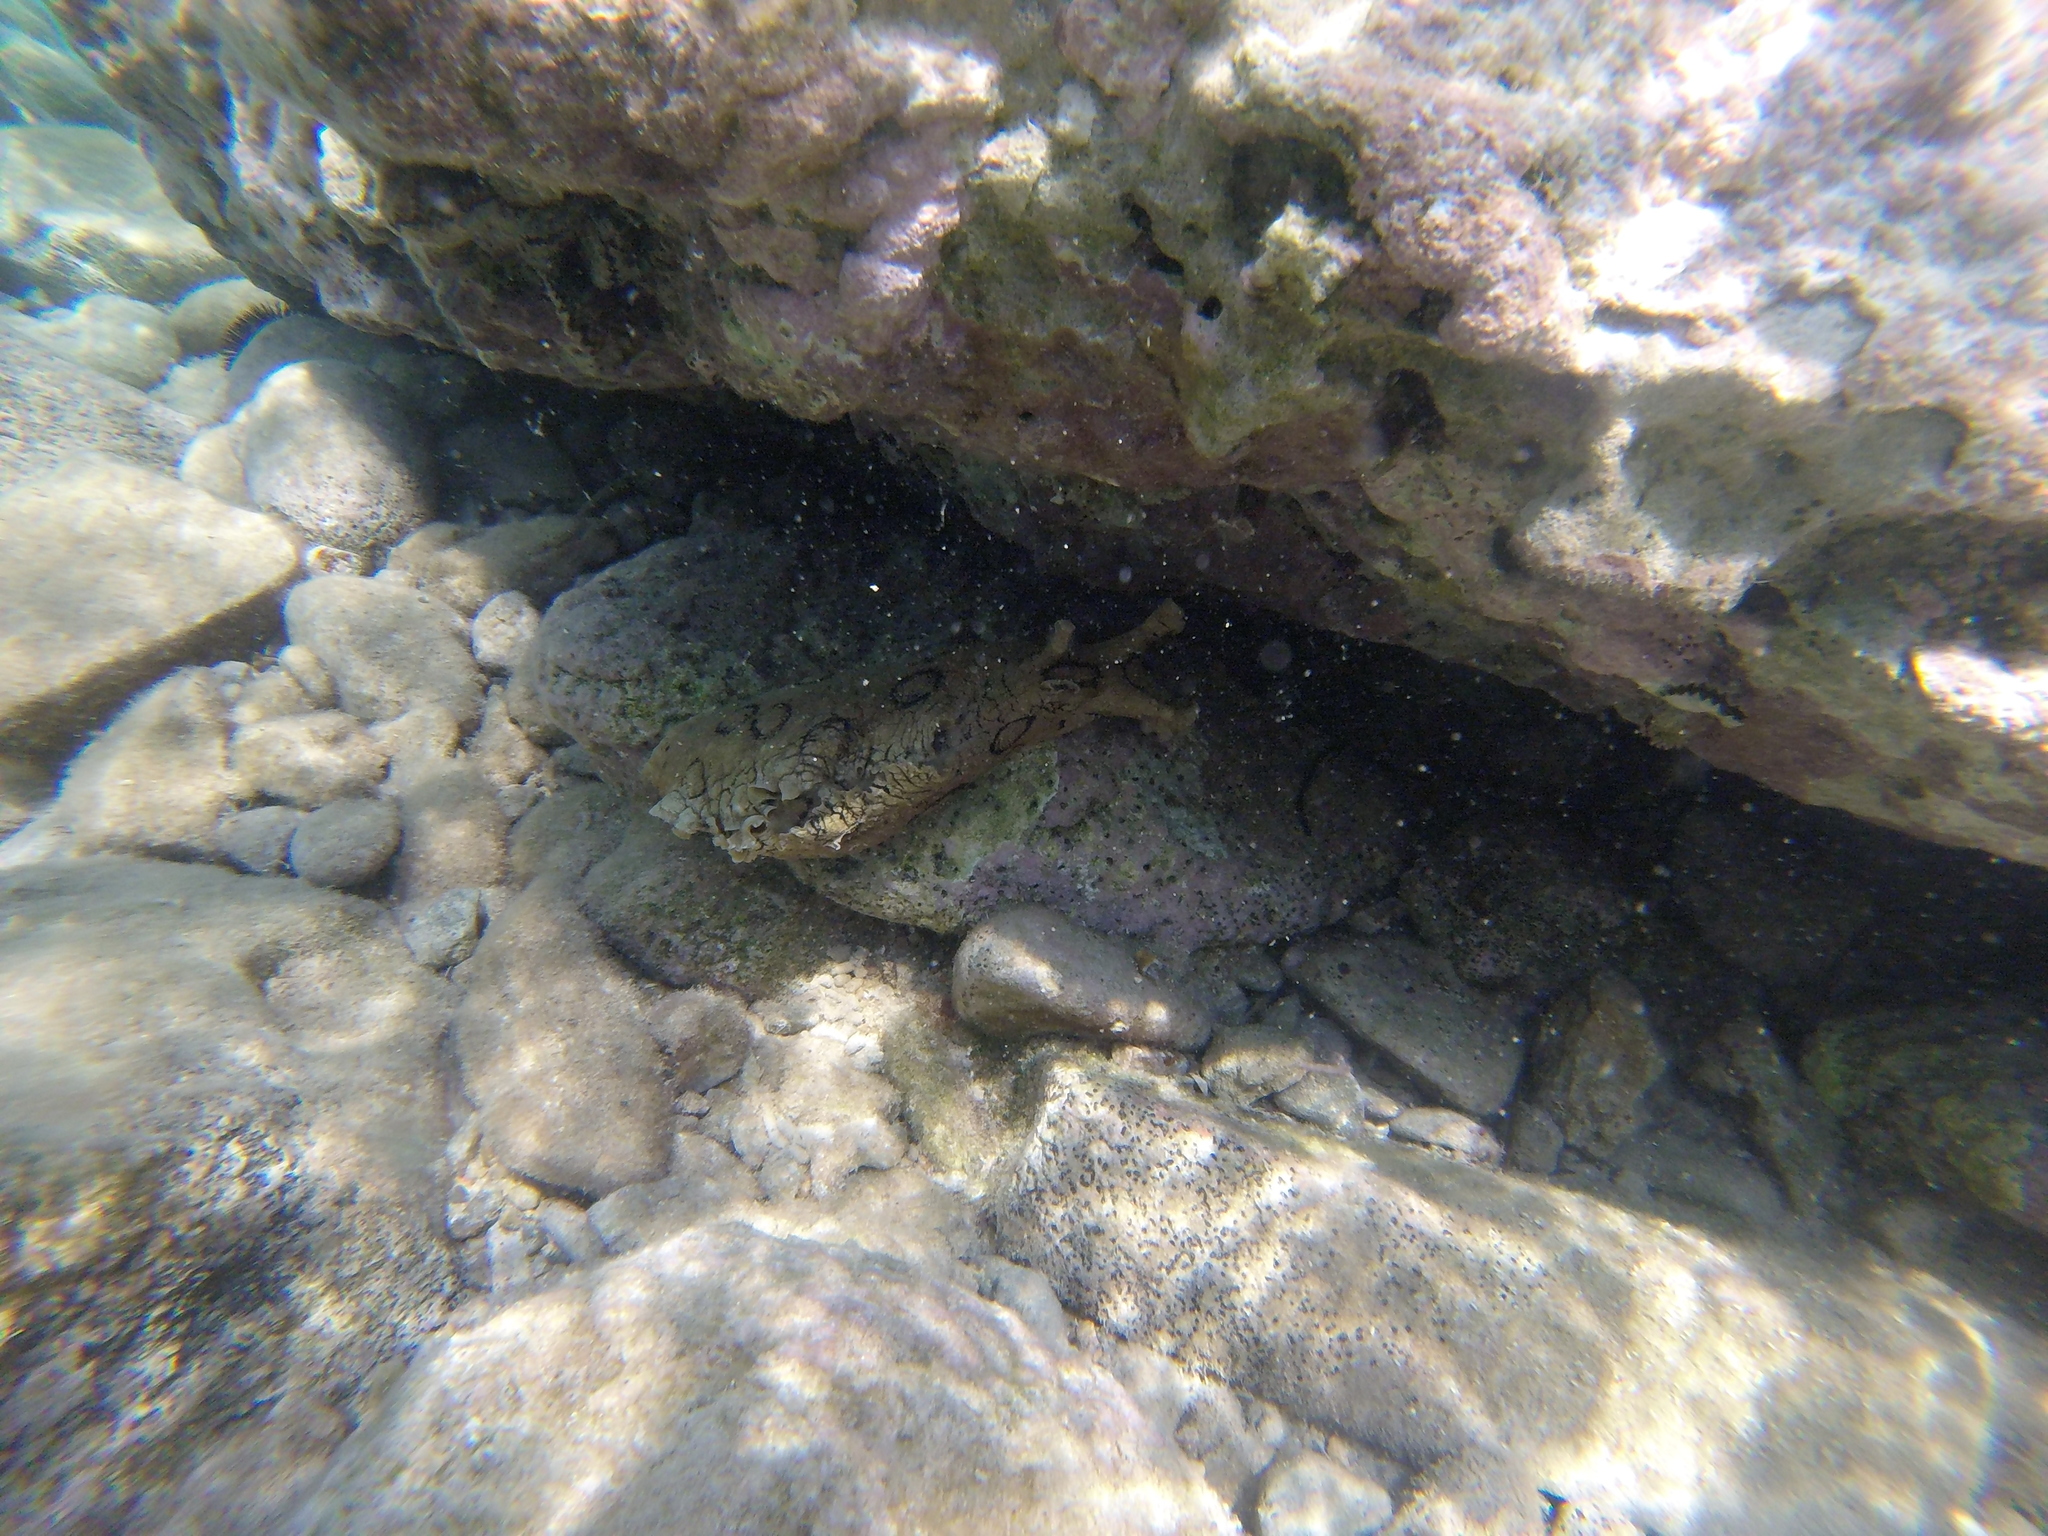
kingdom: Animalia
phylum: Mollusca
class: Gastropoda
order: Aplysiida
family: Aplysiidae
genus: Aplysia
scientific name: Aplysia dactylomela
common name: Large-spotted sea hare
